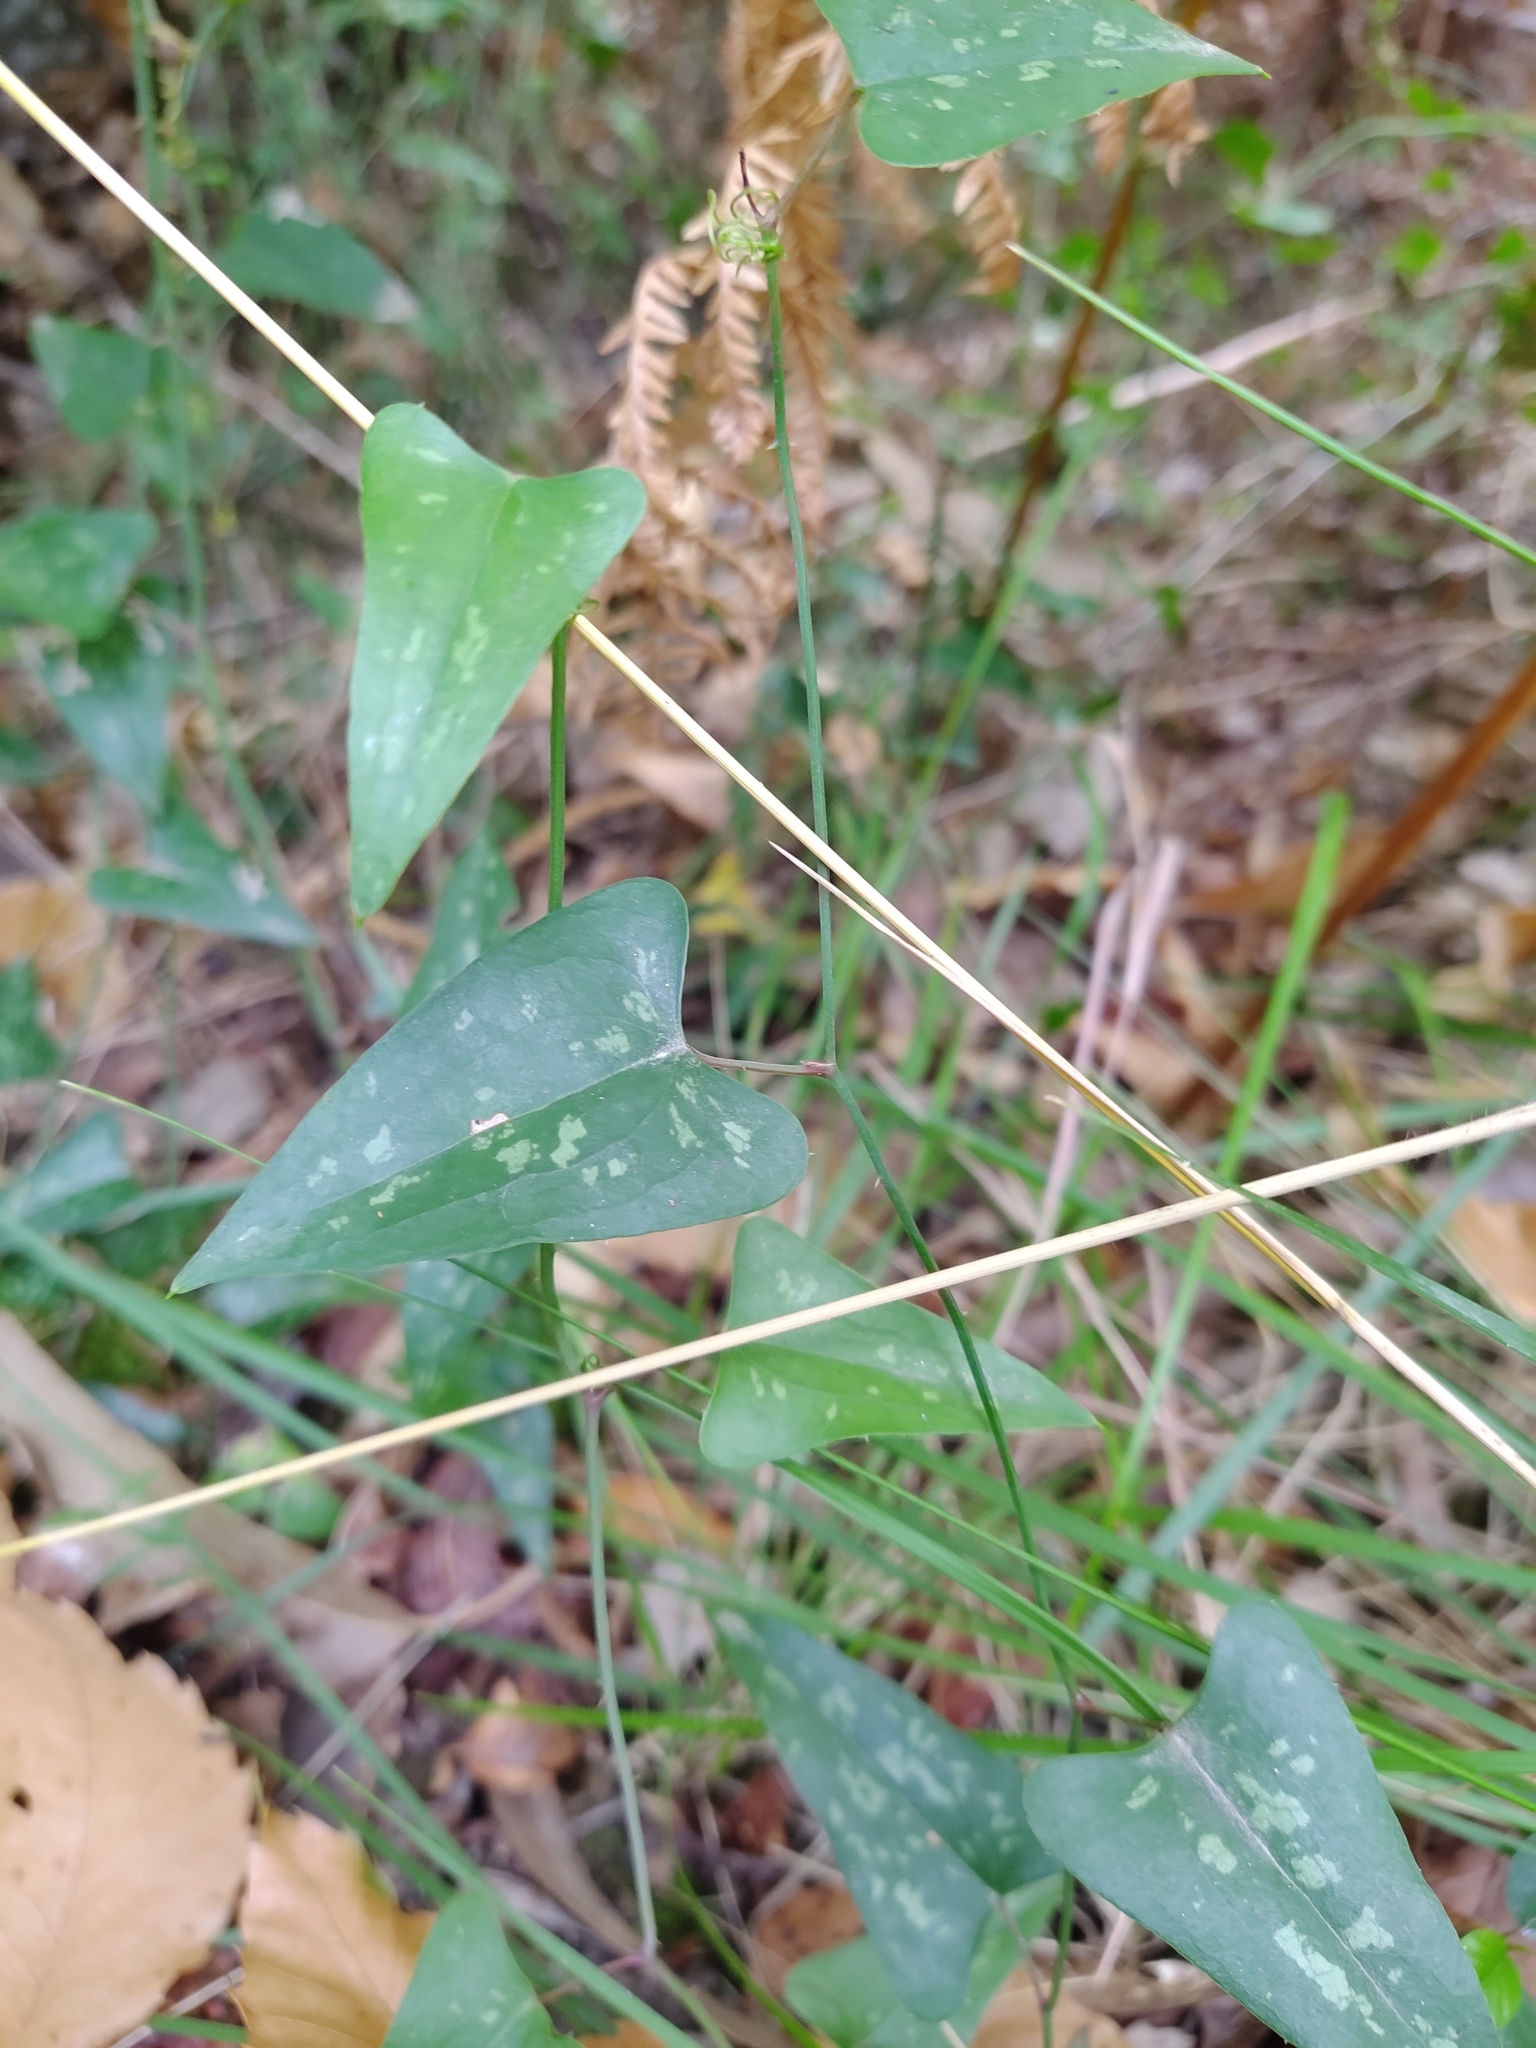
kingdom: Plantae
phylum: Tracheophyta
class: Liliopsida
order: Liliales
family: Smilacaceae
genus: Smilax
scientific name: Smilax aspera
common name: Common smilax
